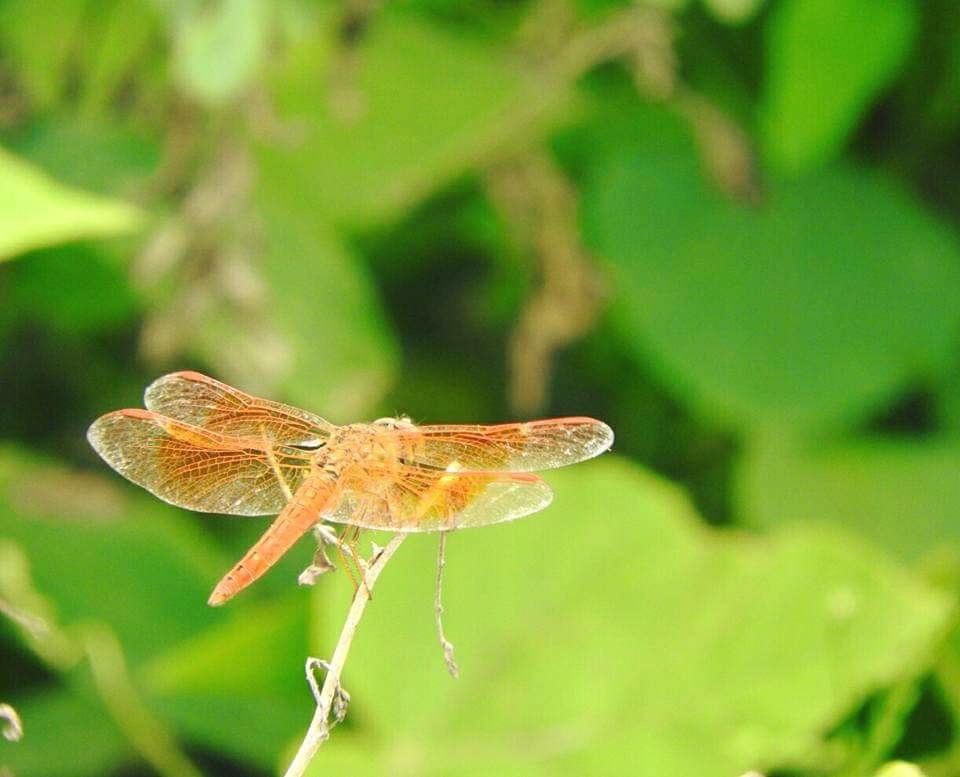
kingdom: Animalia
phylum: Arthropoda
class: Insecta
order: Odonata
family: Libellulidae
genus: Brachythemis
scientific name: Brachythemis contaminata
